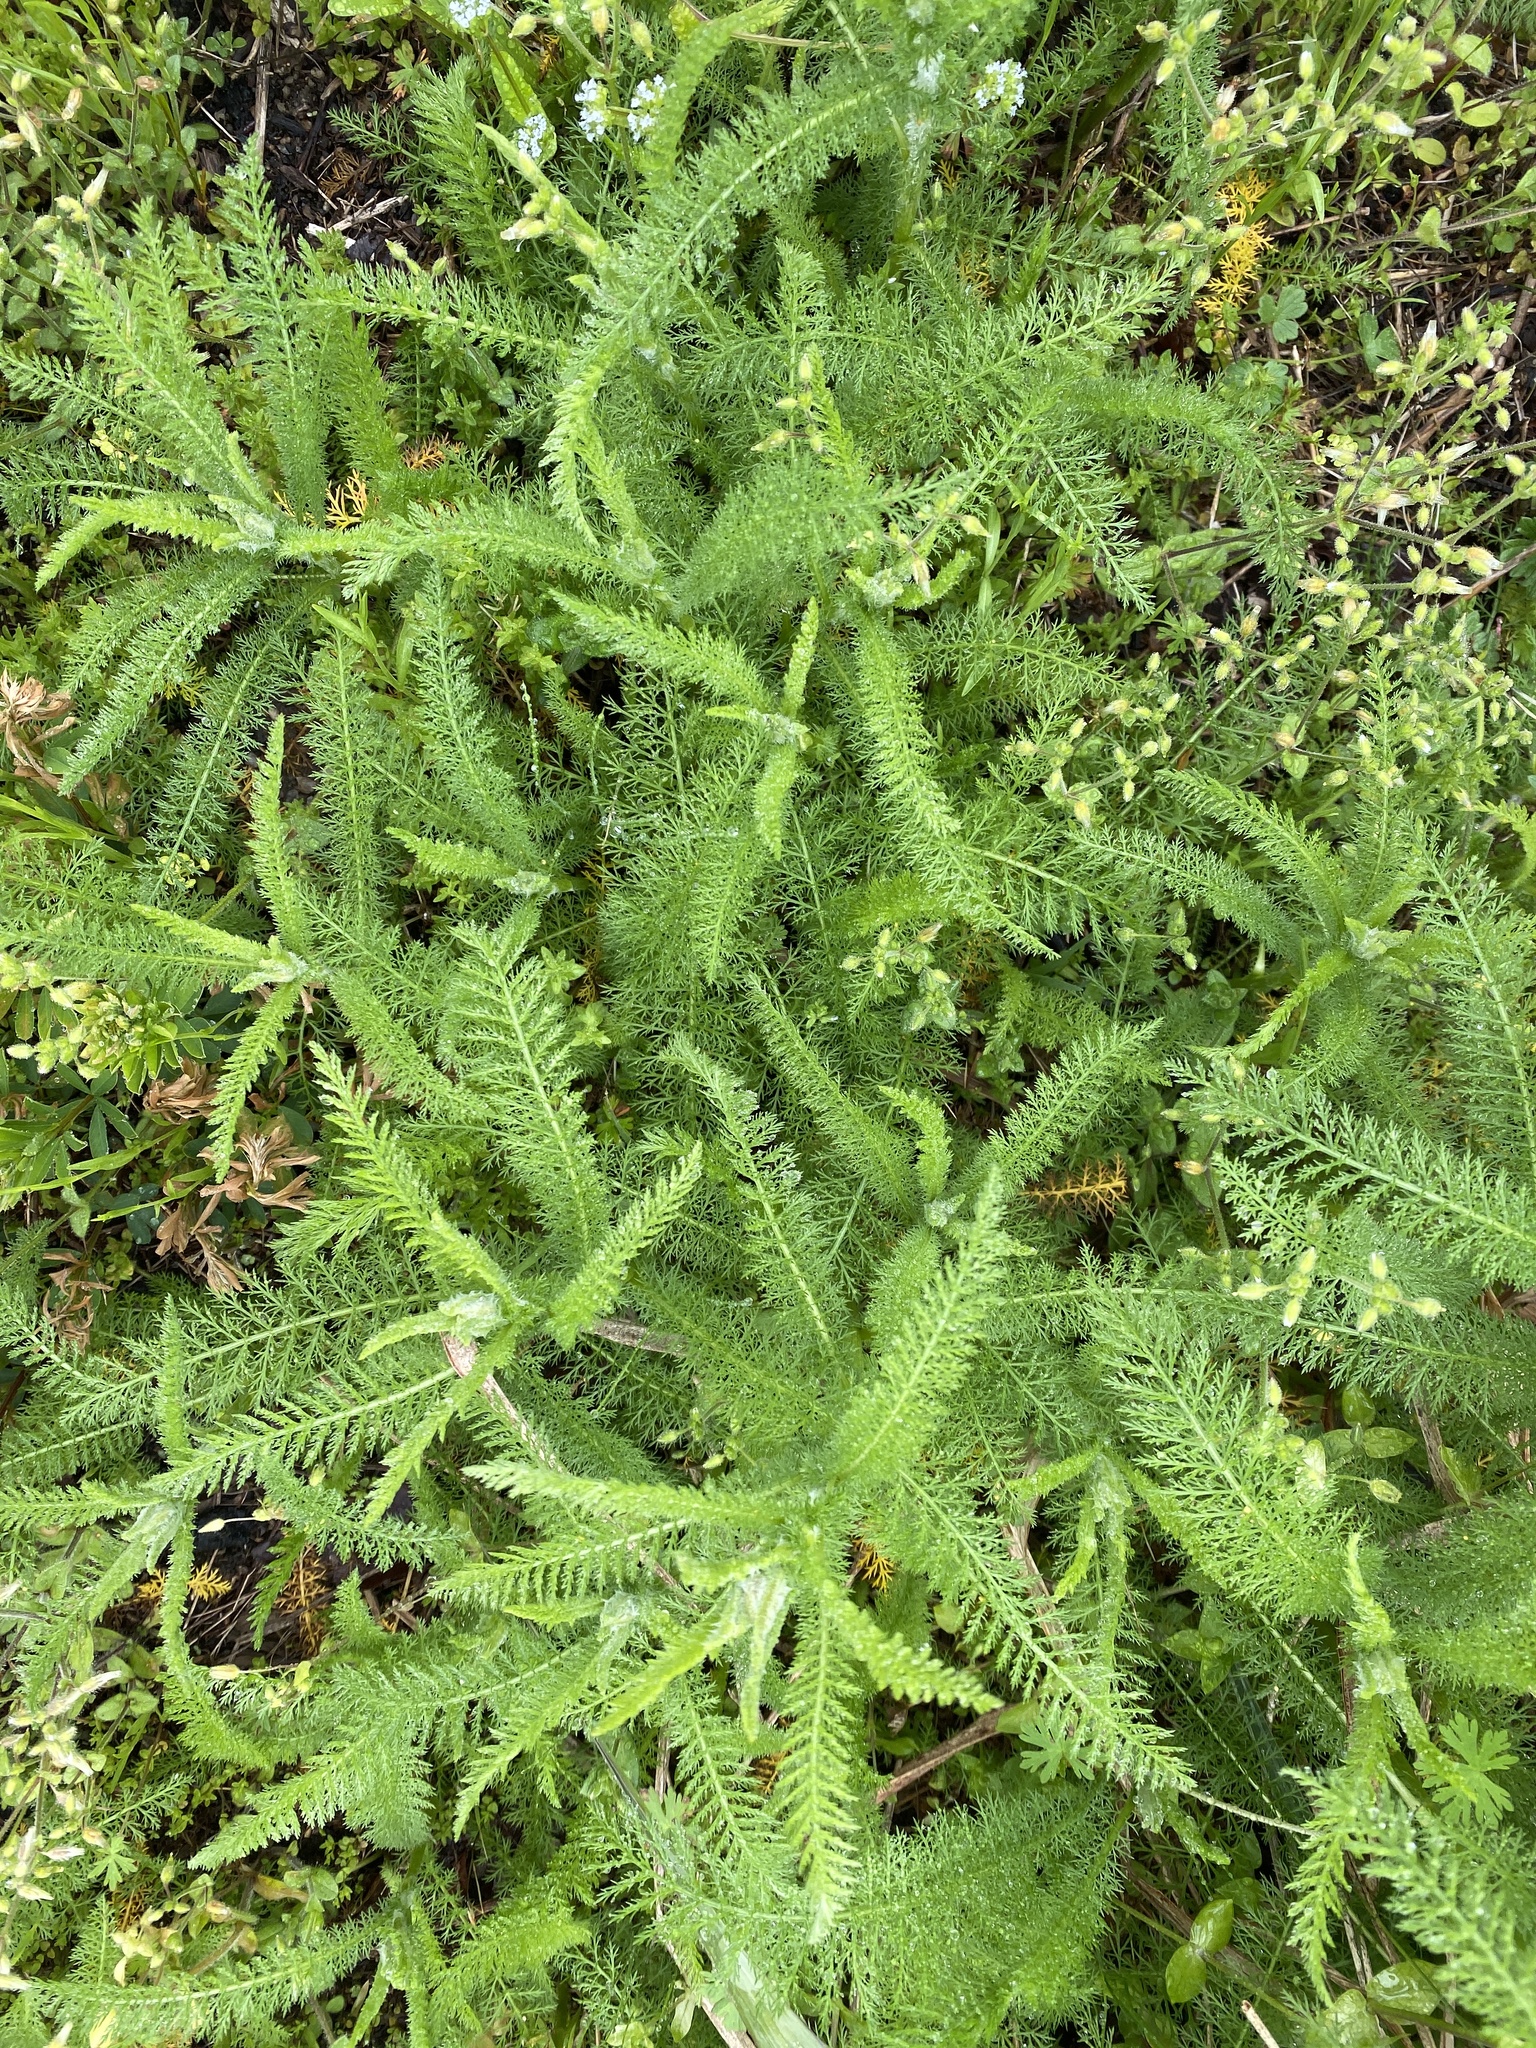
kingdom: Plantae
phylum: Tracheophyta
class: Magnoliopsida
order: Asterales
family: Asteraceae
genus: Achillea
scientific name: Achillea millefolium
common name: Yarrow
